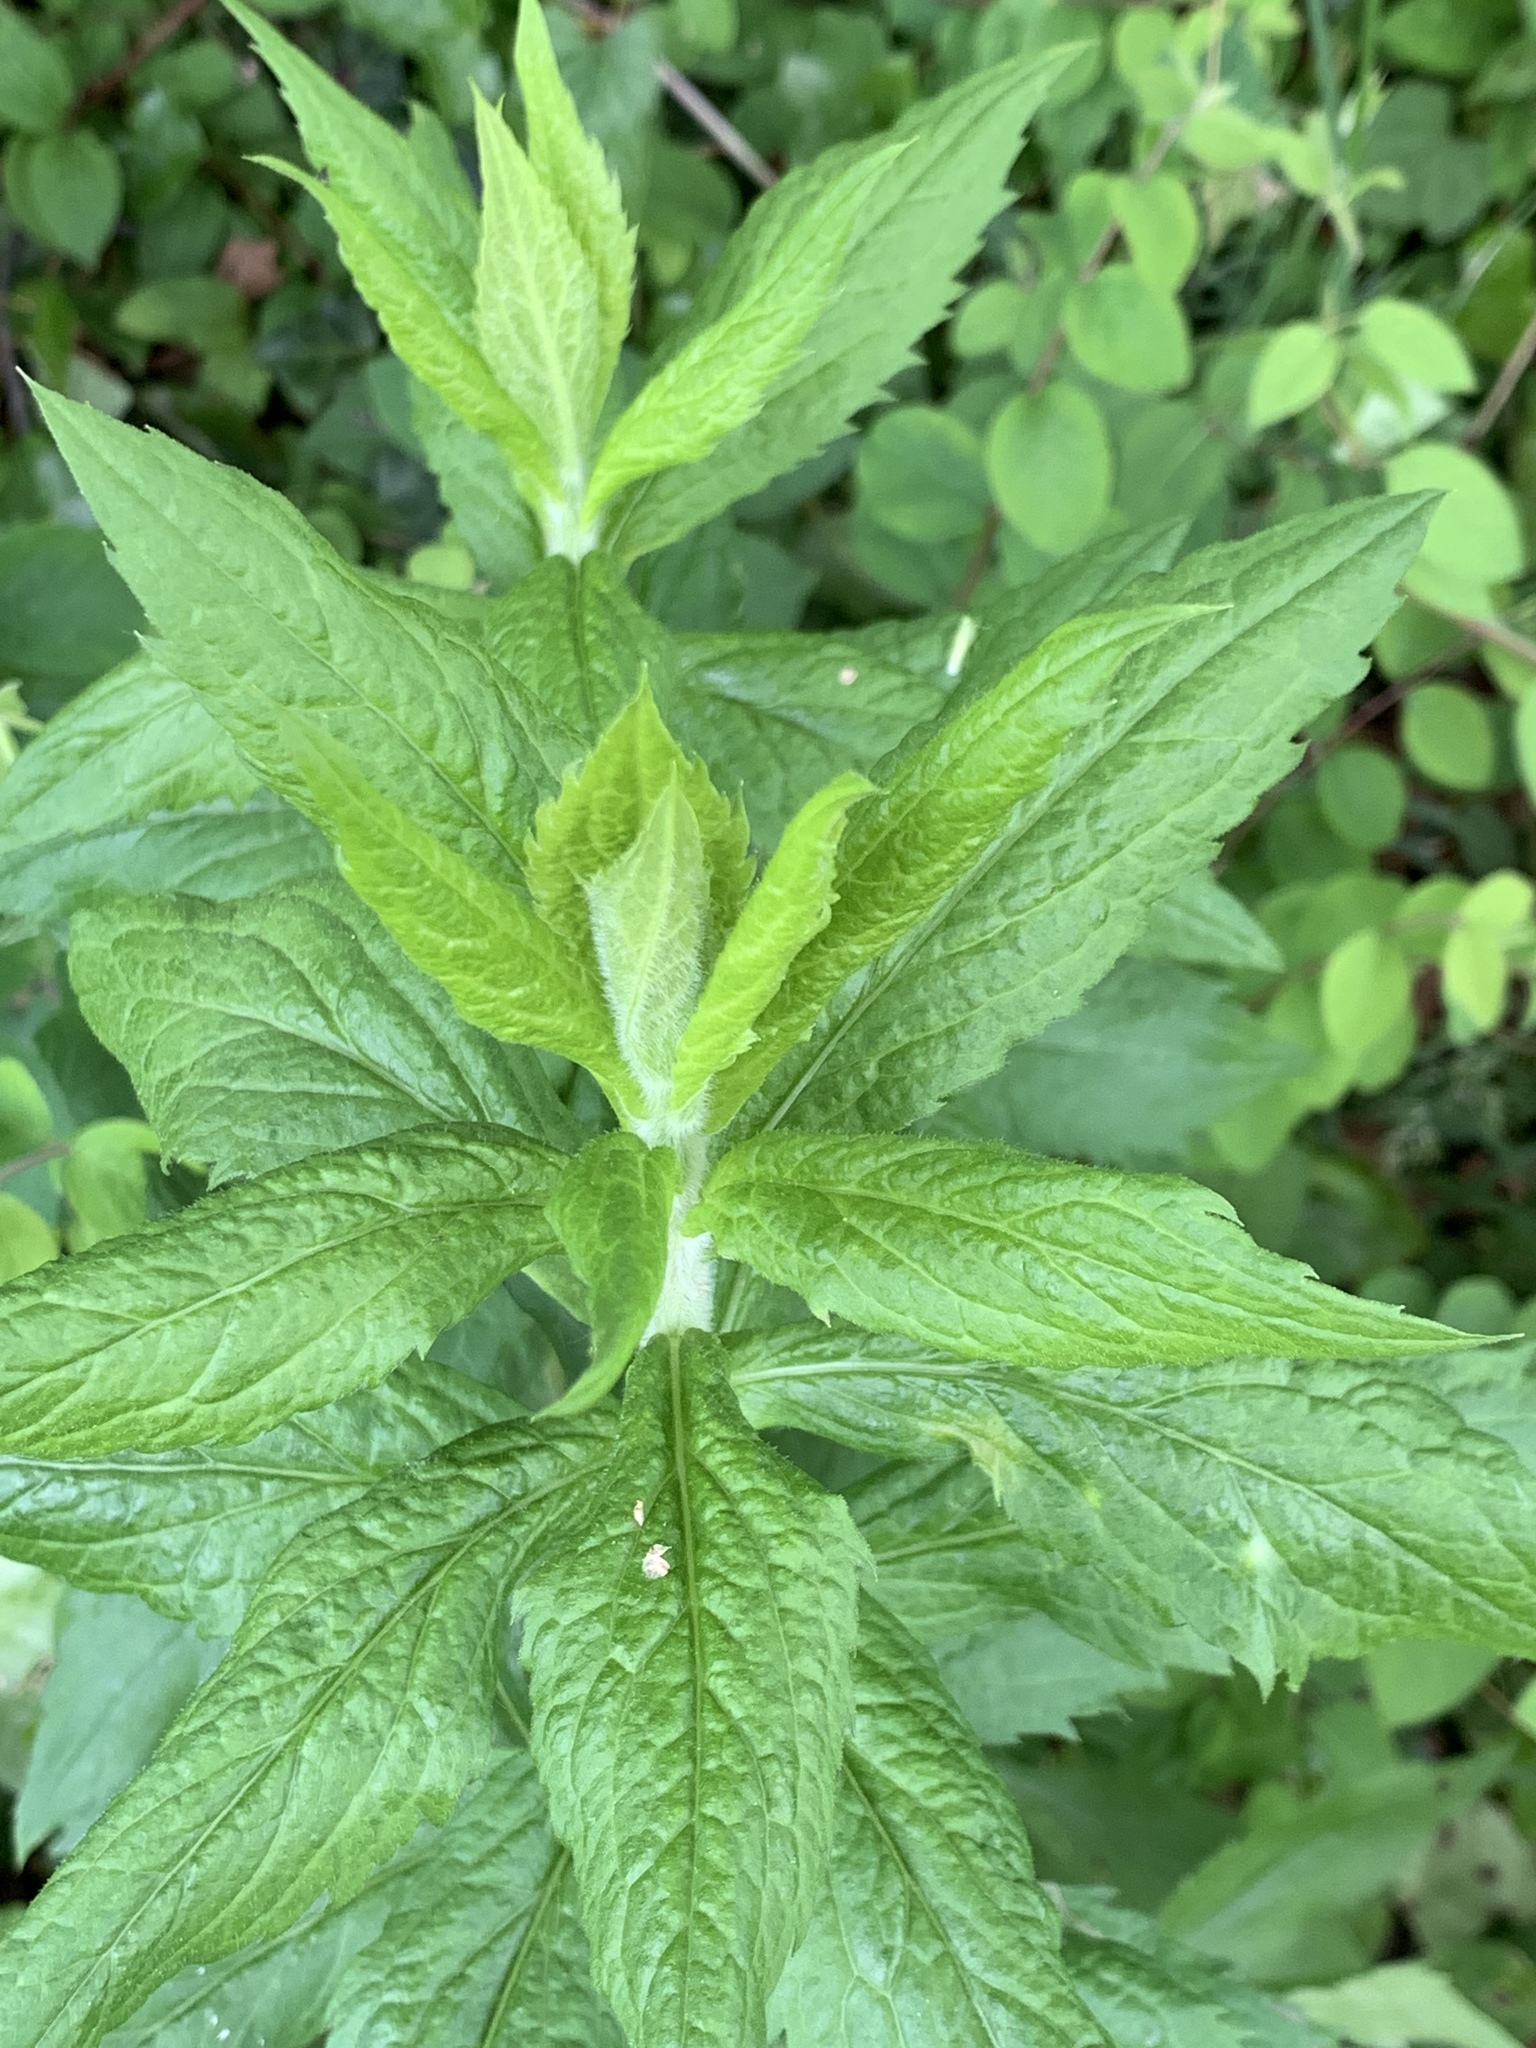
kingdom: Plantae
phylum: Tracheophyta
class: Magnoliopsida
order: Asterales
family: Asteraceae
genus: Solidago
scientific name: Solidago rugosa
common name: Rough-stemmed goldenrod
